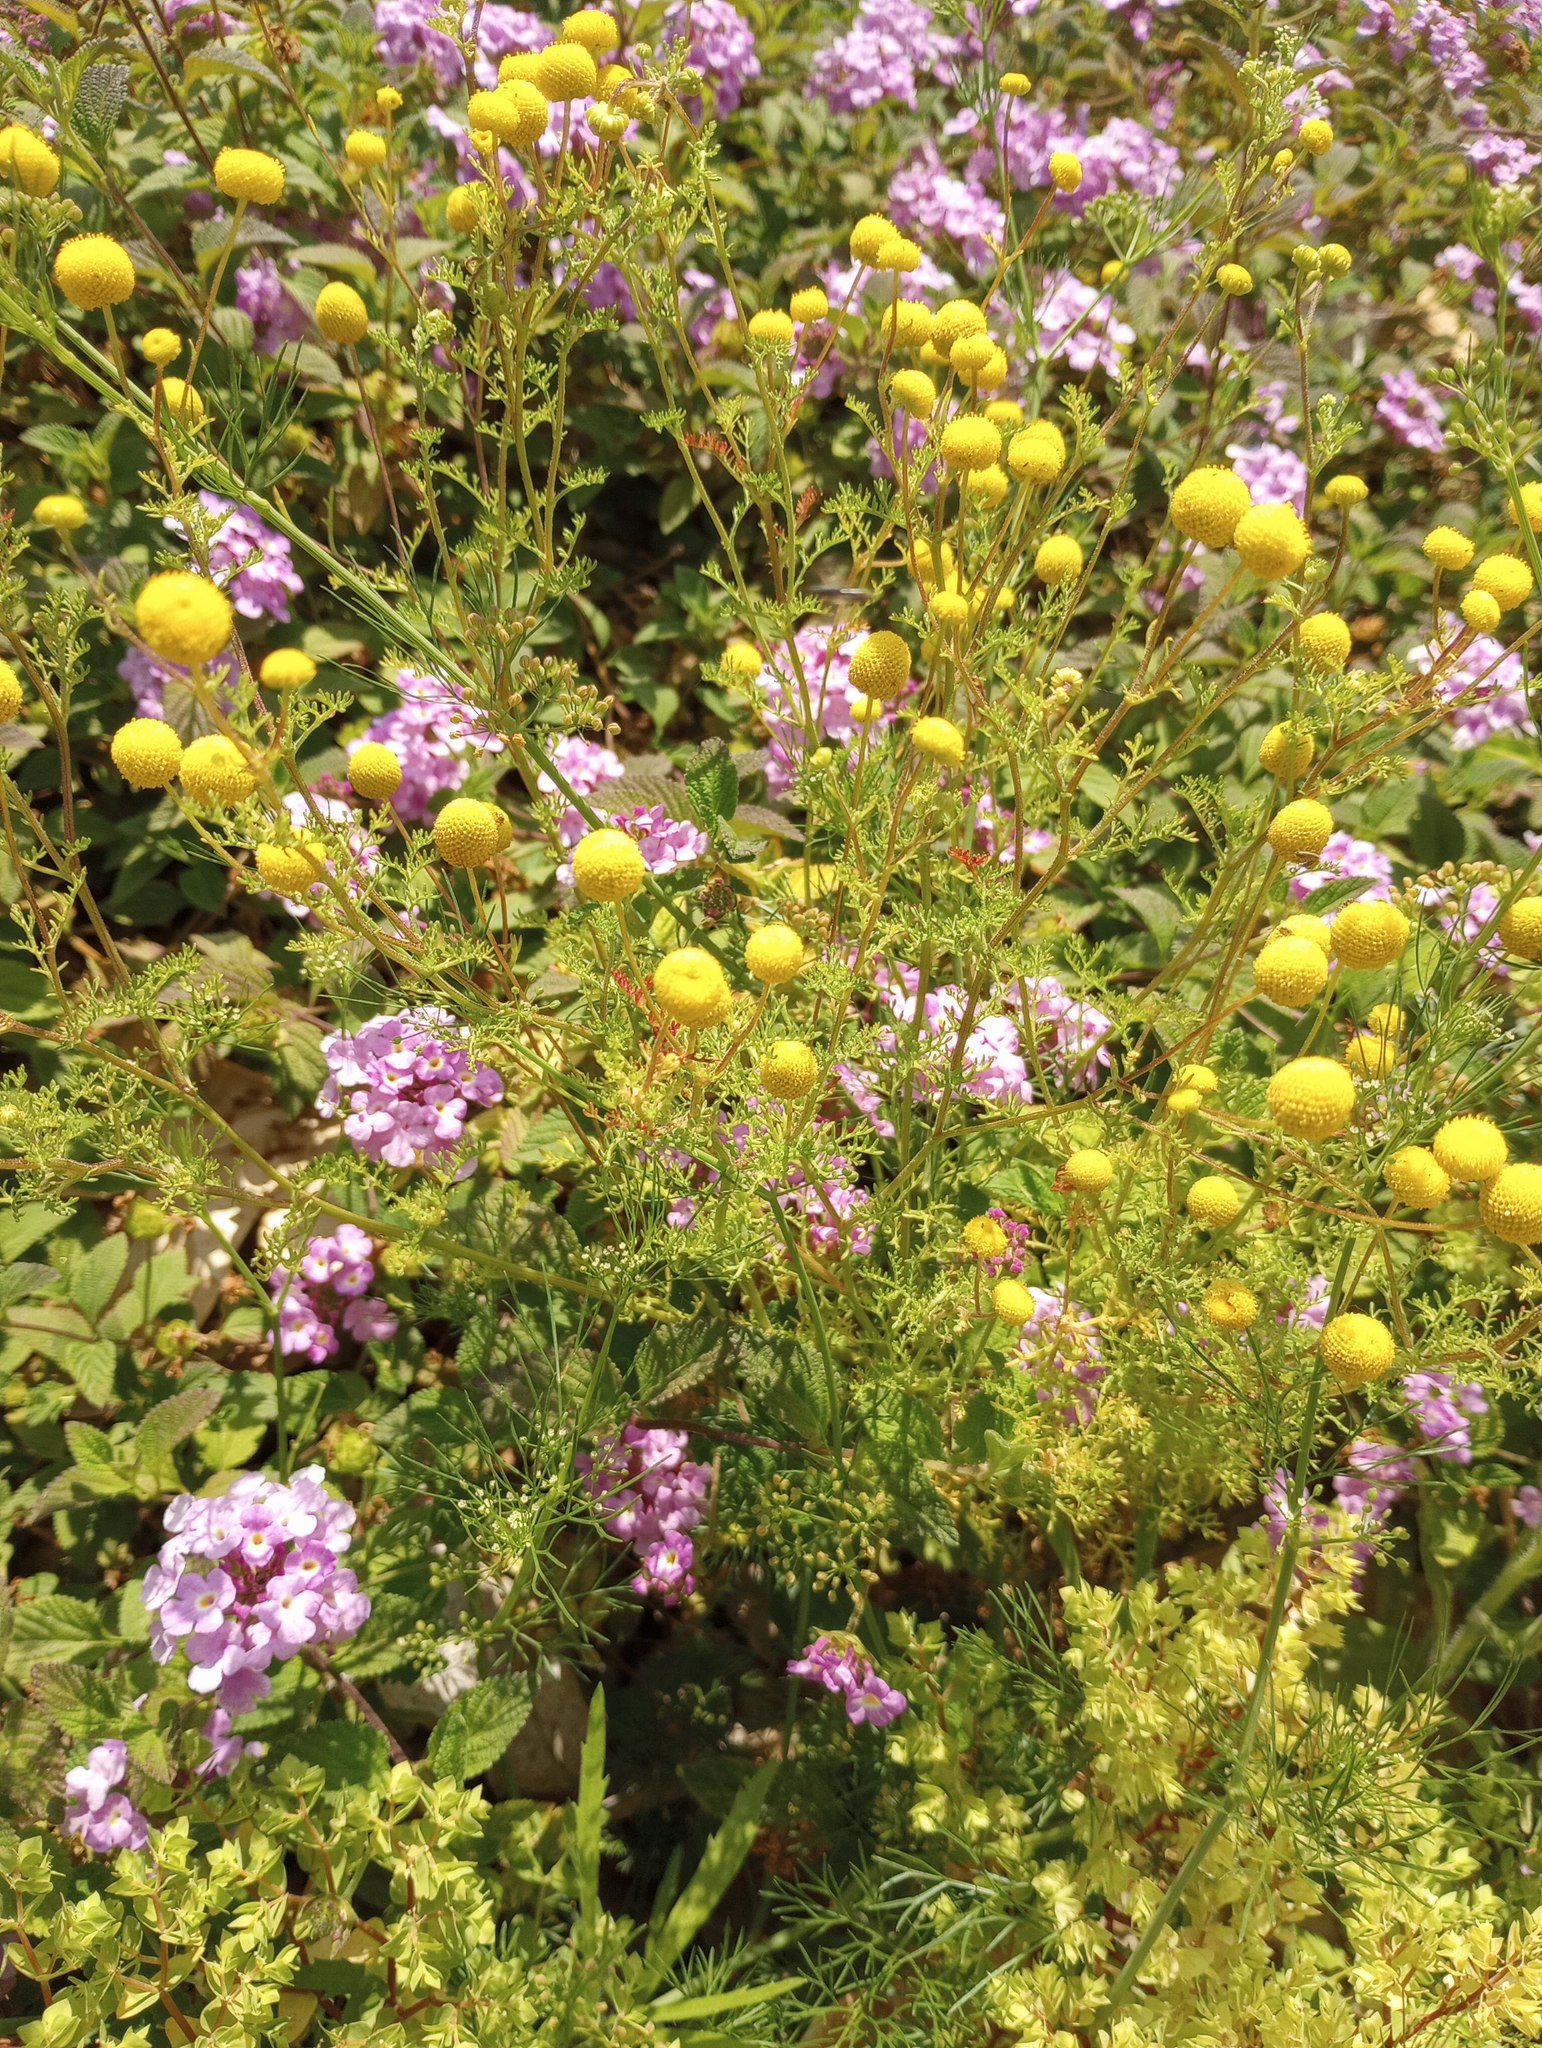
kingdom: Plantae
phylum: Tracheophyta
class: Magnoliopsida
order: Apiales
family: Apiaceae
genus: Cyclospermum
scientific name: Cyclospermum leptophyllum
